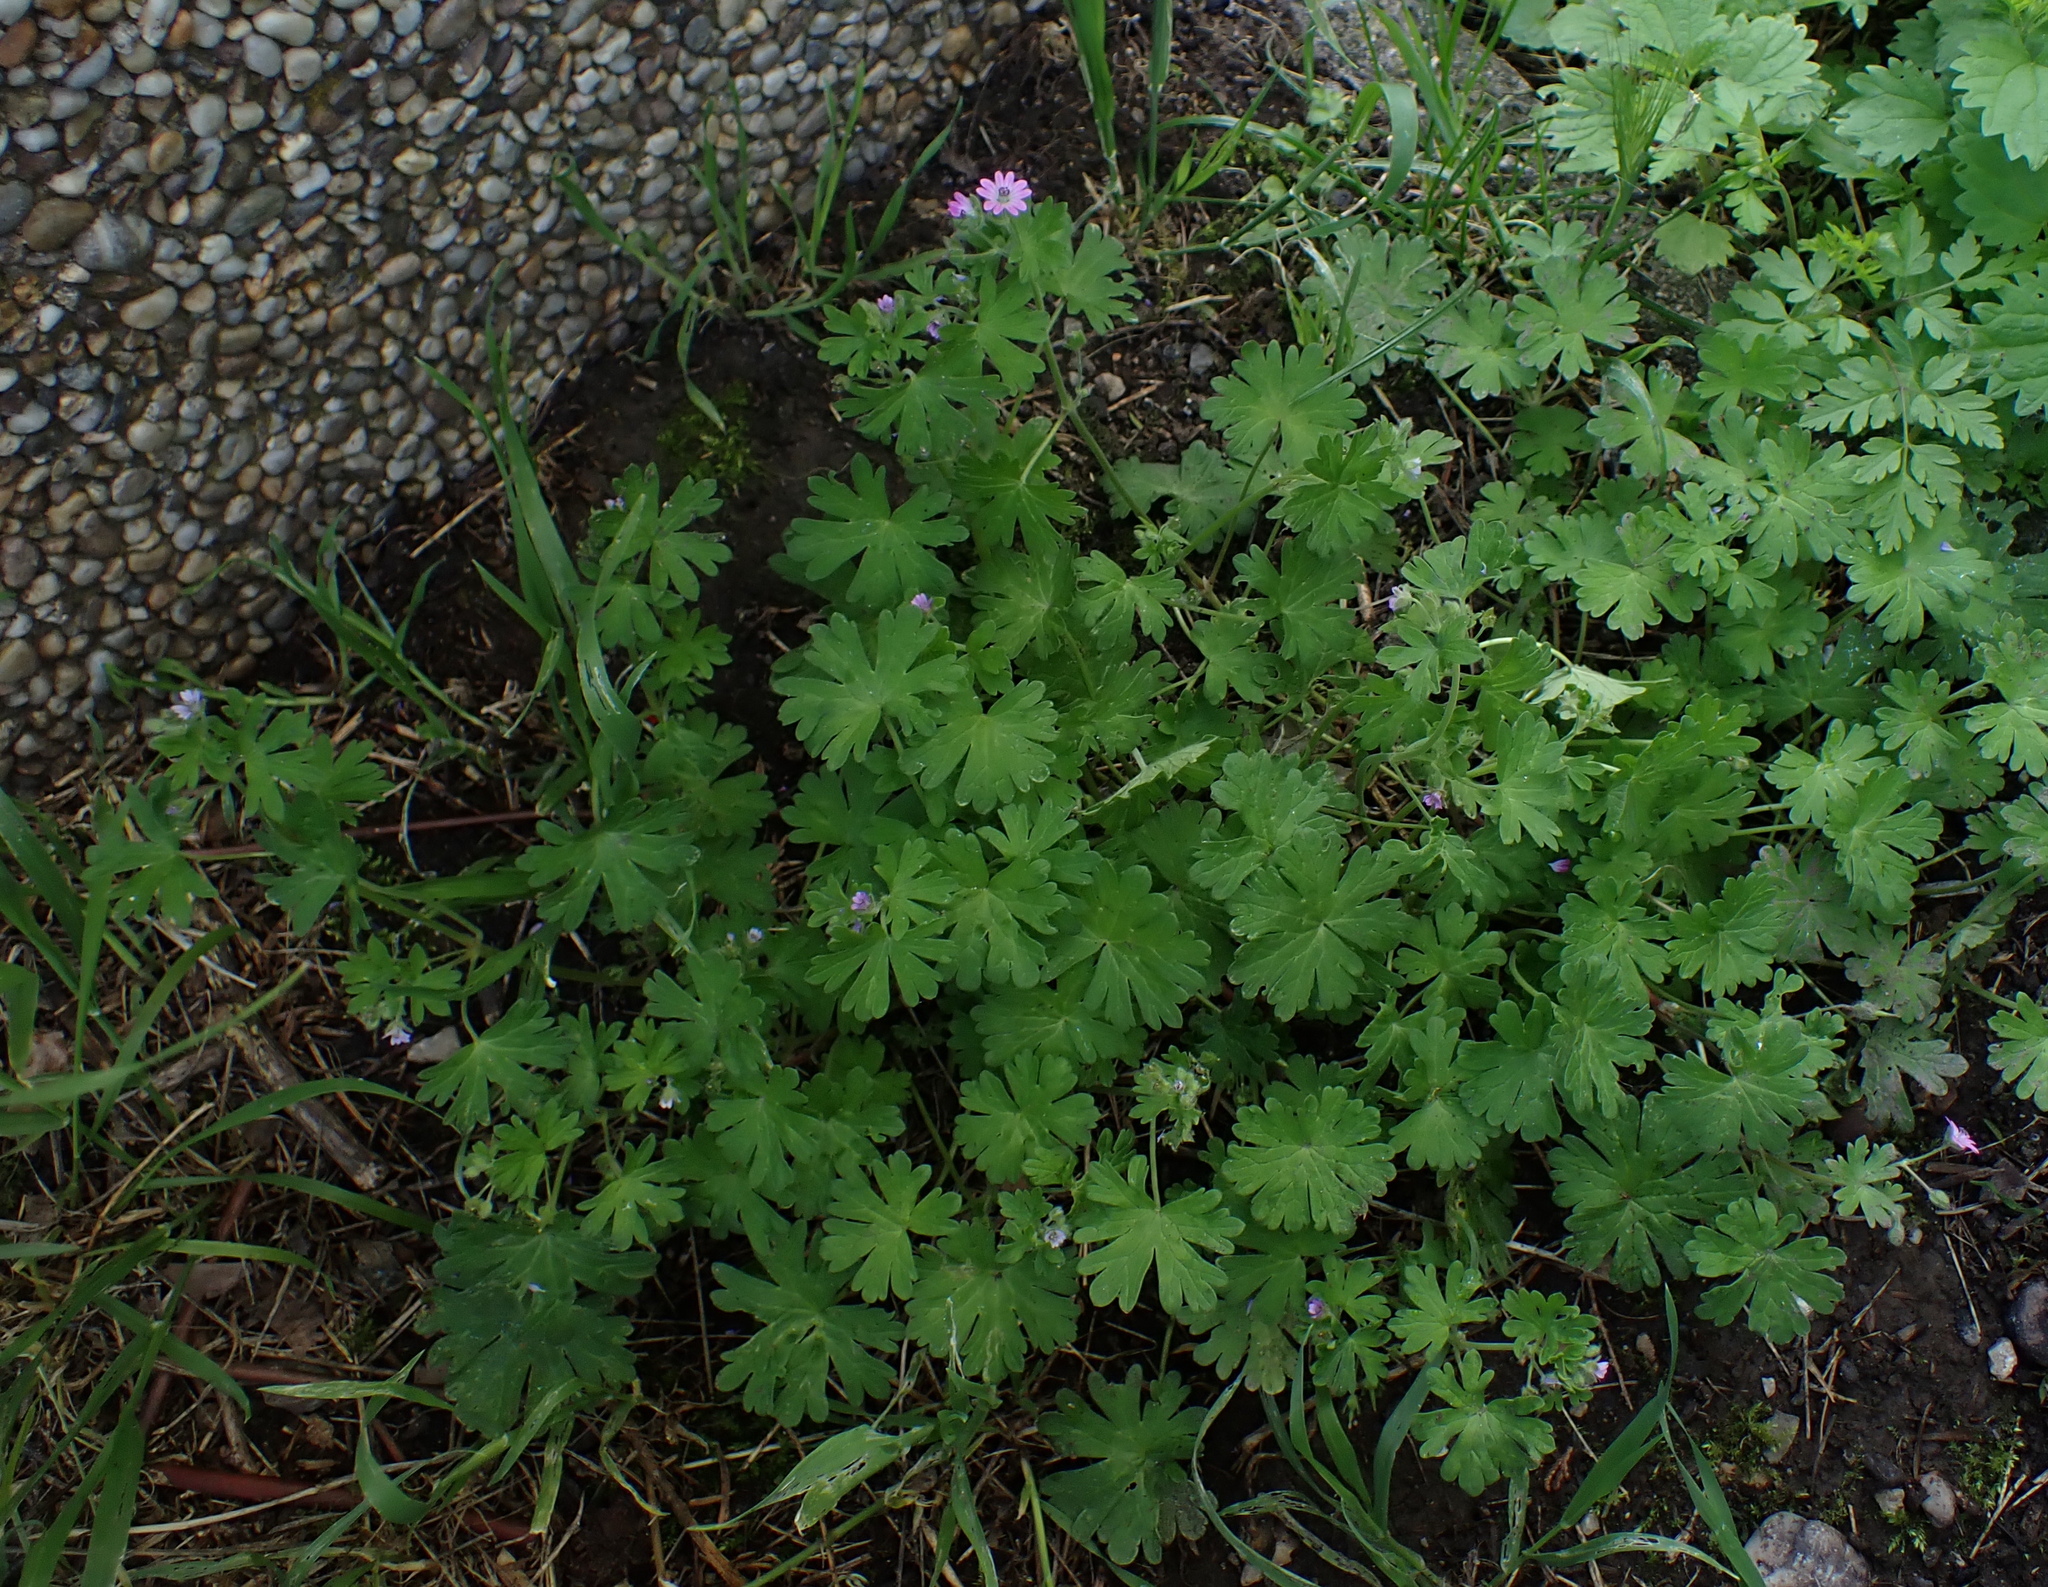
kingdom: Plantae
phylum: Tracheophyta
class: Magnoliopsida
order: Geraniales
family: Geraniaceae
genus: Geranium
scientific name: Geranium pusillum
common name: Small geranium
